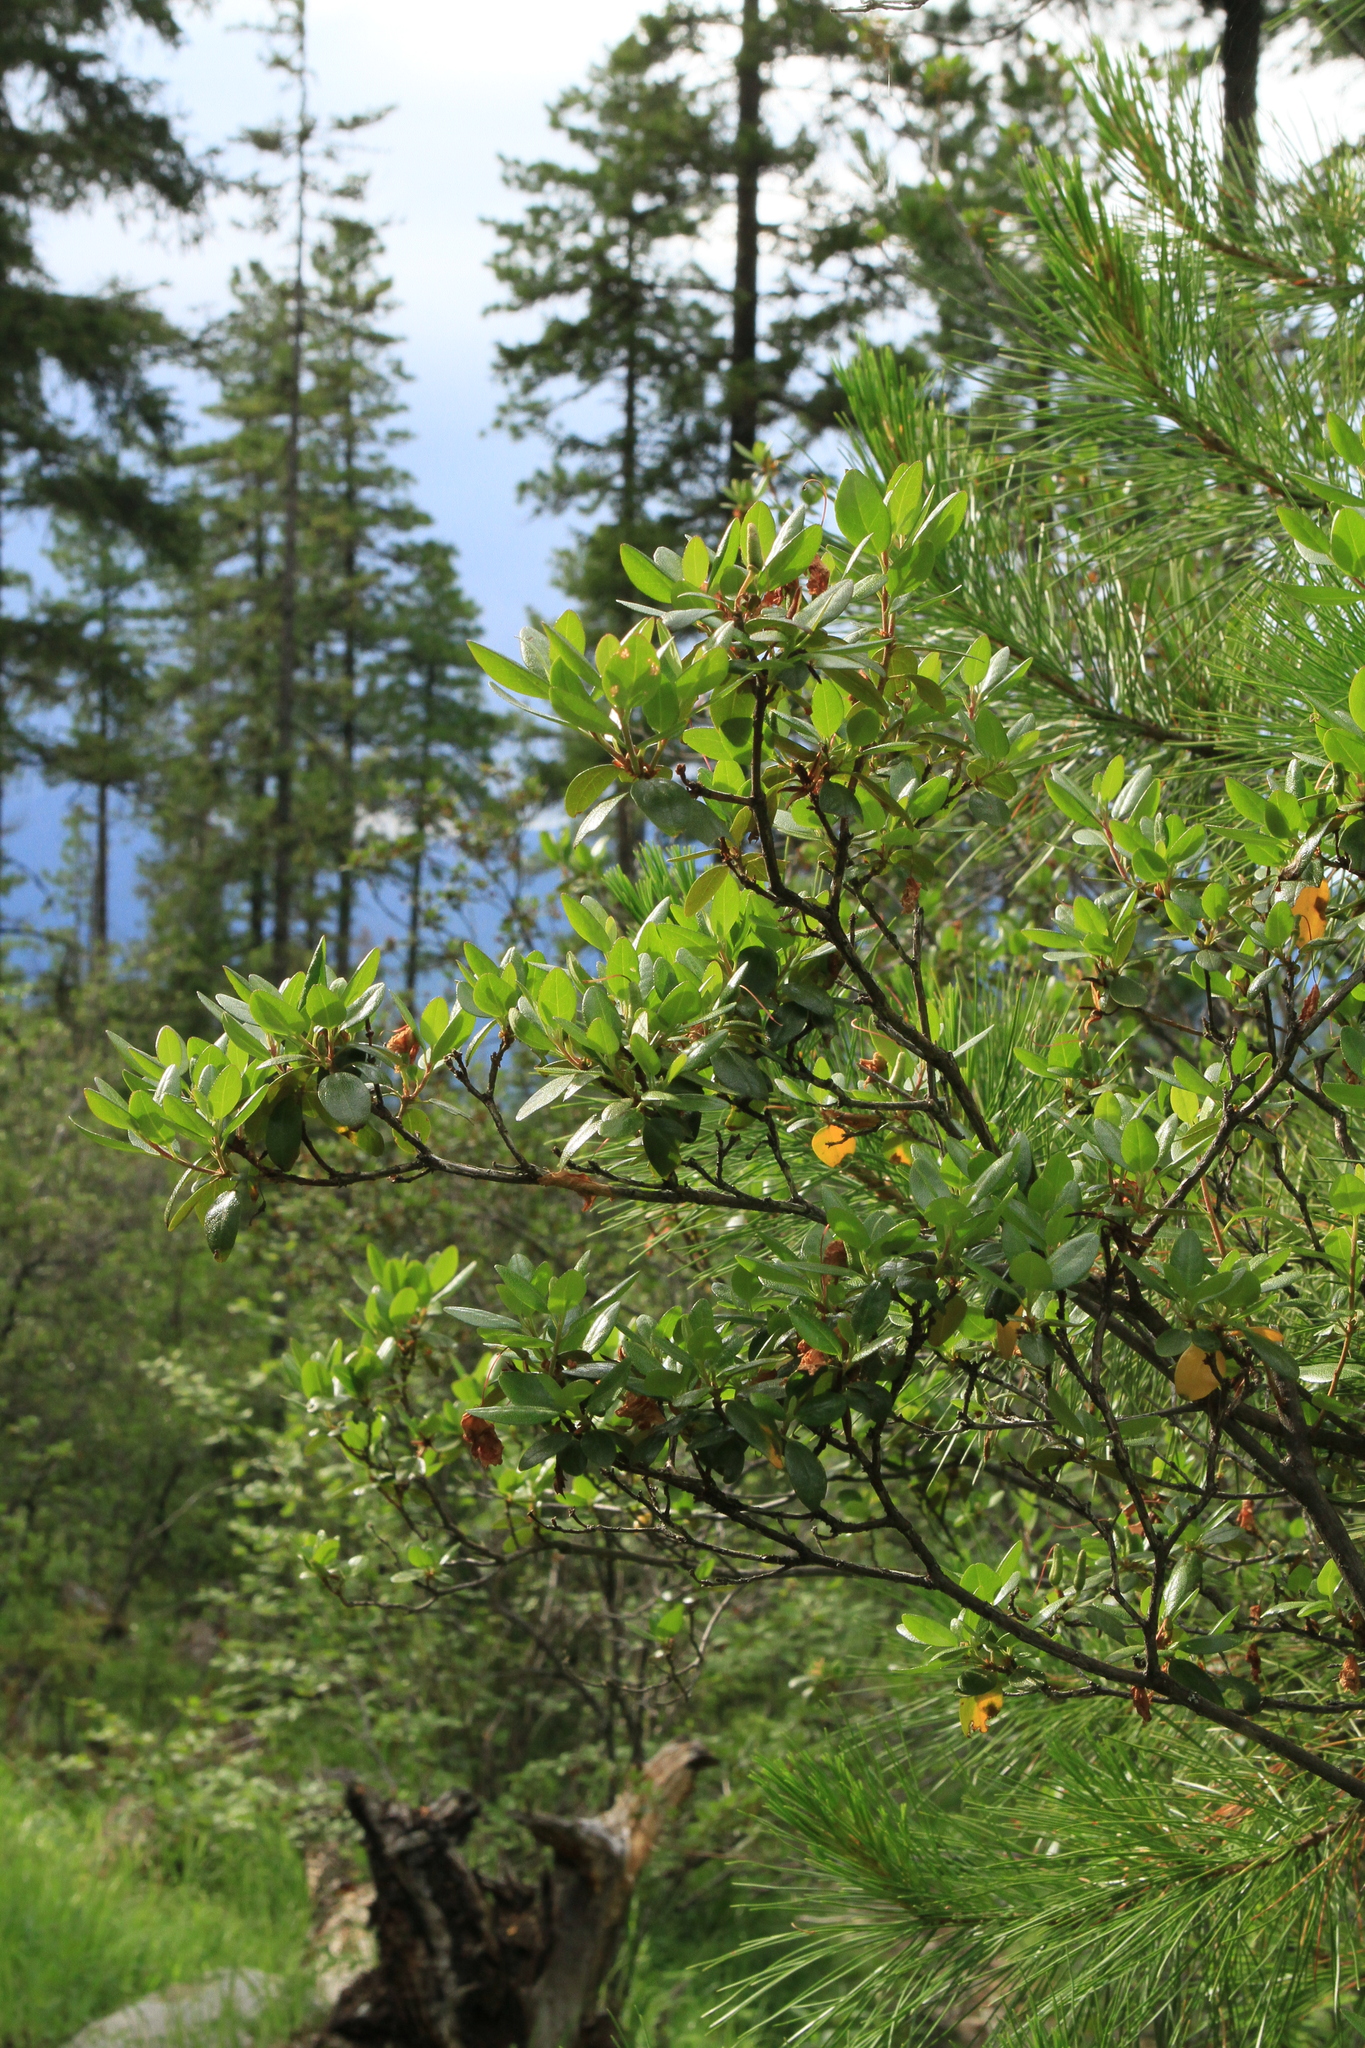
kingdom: Plantae
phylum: Tracheophyta
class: Magnoliopsida
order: Ericales
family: Ericaceae
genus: Rhododendron
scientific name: Rhododendron dauricum
